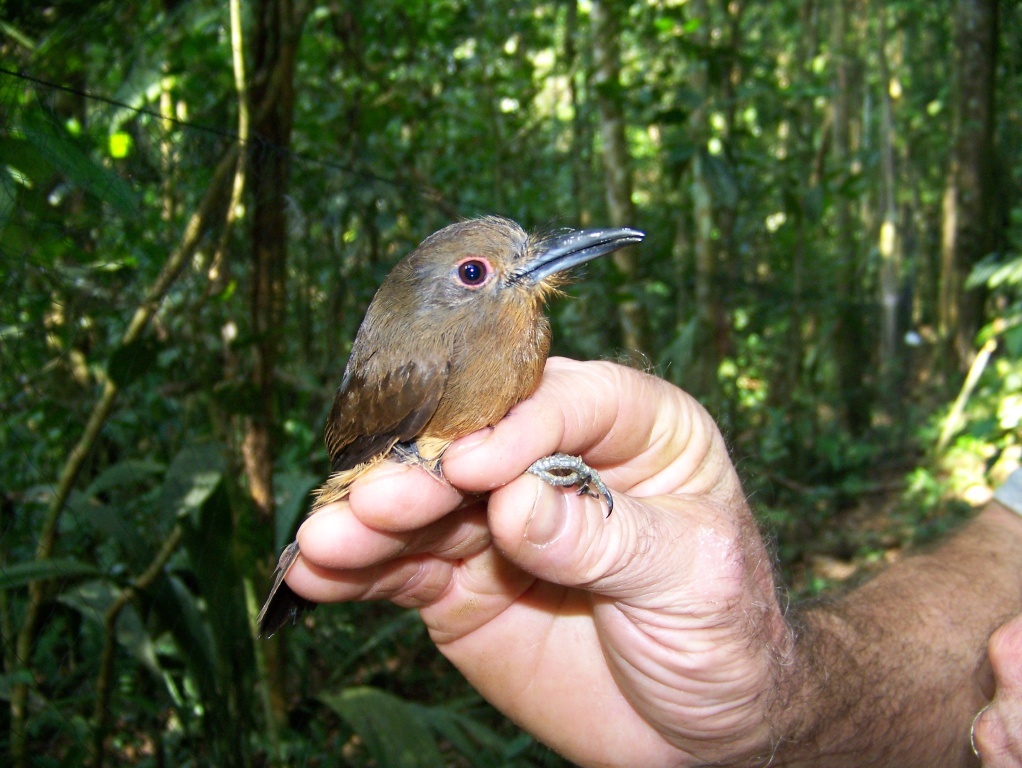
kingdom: Animalia
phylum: Chordata
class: Aves
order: Piciformes
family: Bucconidae
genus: Nonnula
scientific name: Nonnula brunnea
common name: Brown nunlet
